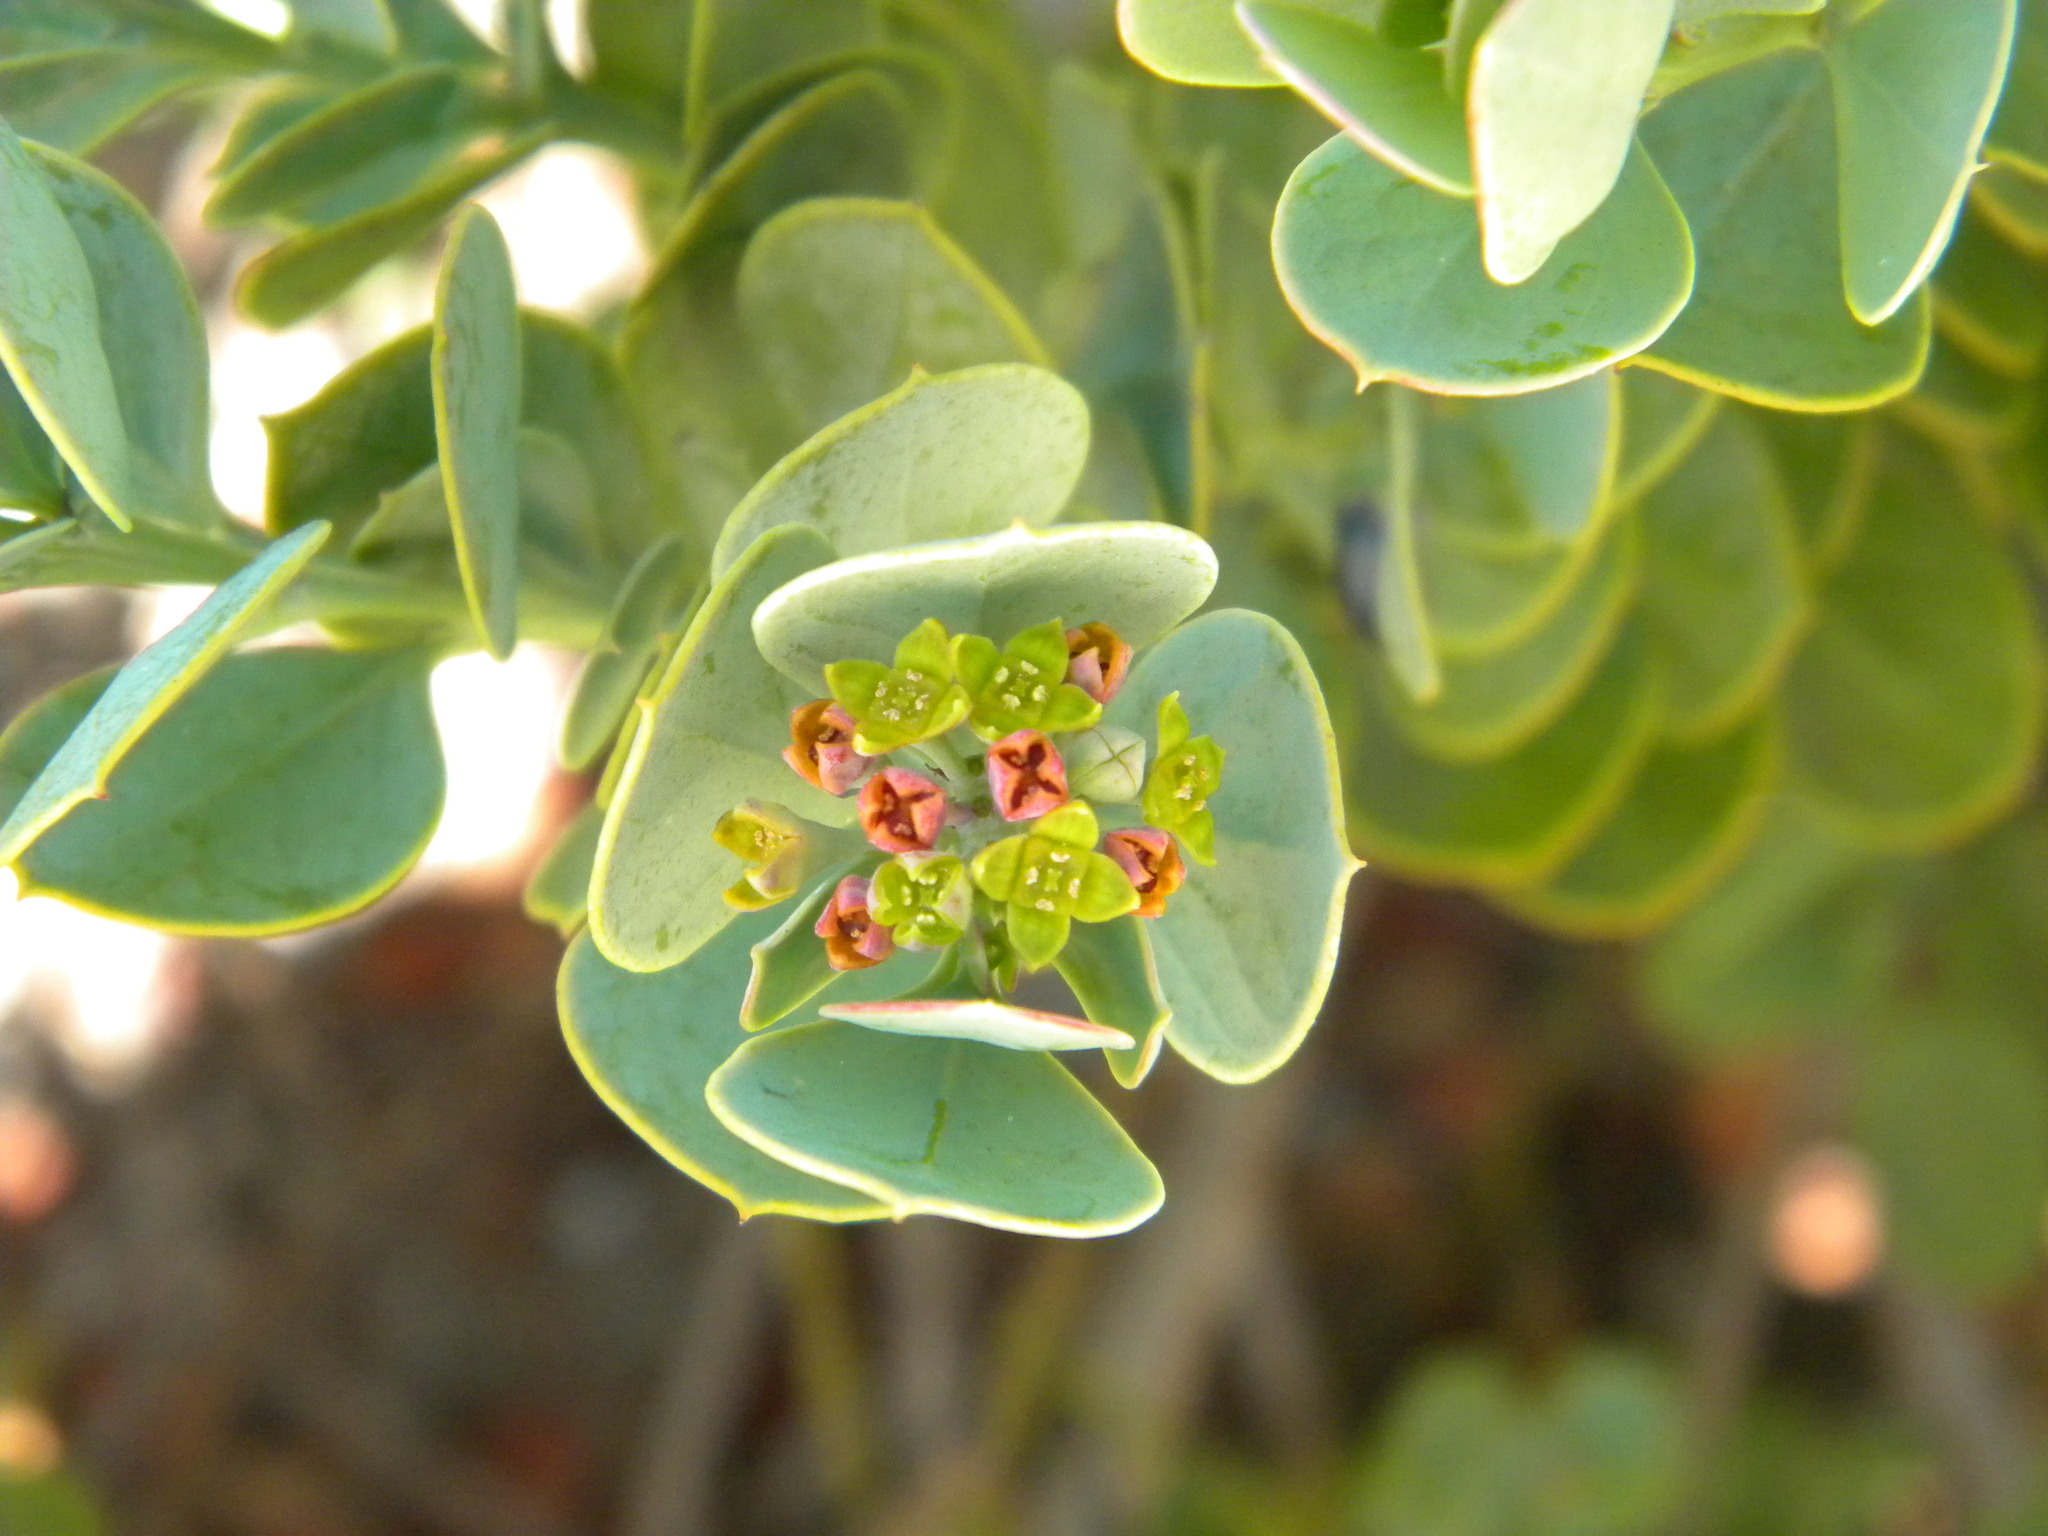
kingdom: Plantae
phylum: Tracheophyta
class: Magnoliopsida
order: Santalales
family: Santalaceae
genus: Osyris
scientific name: Osyris compressa
